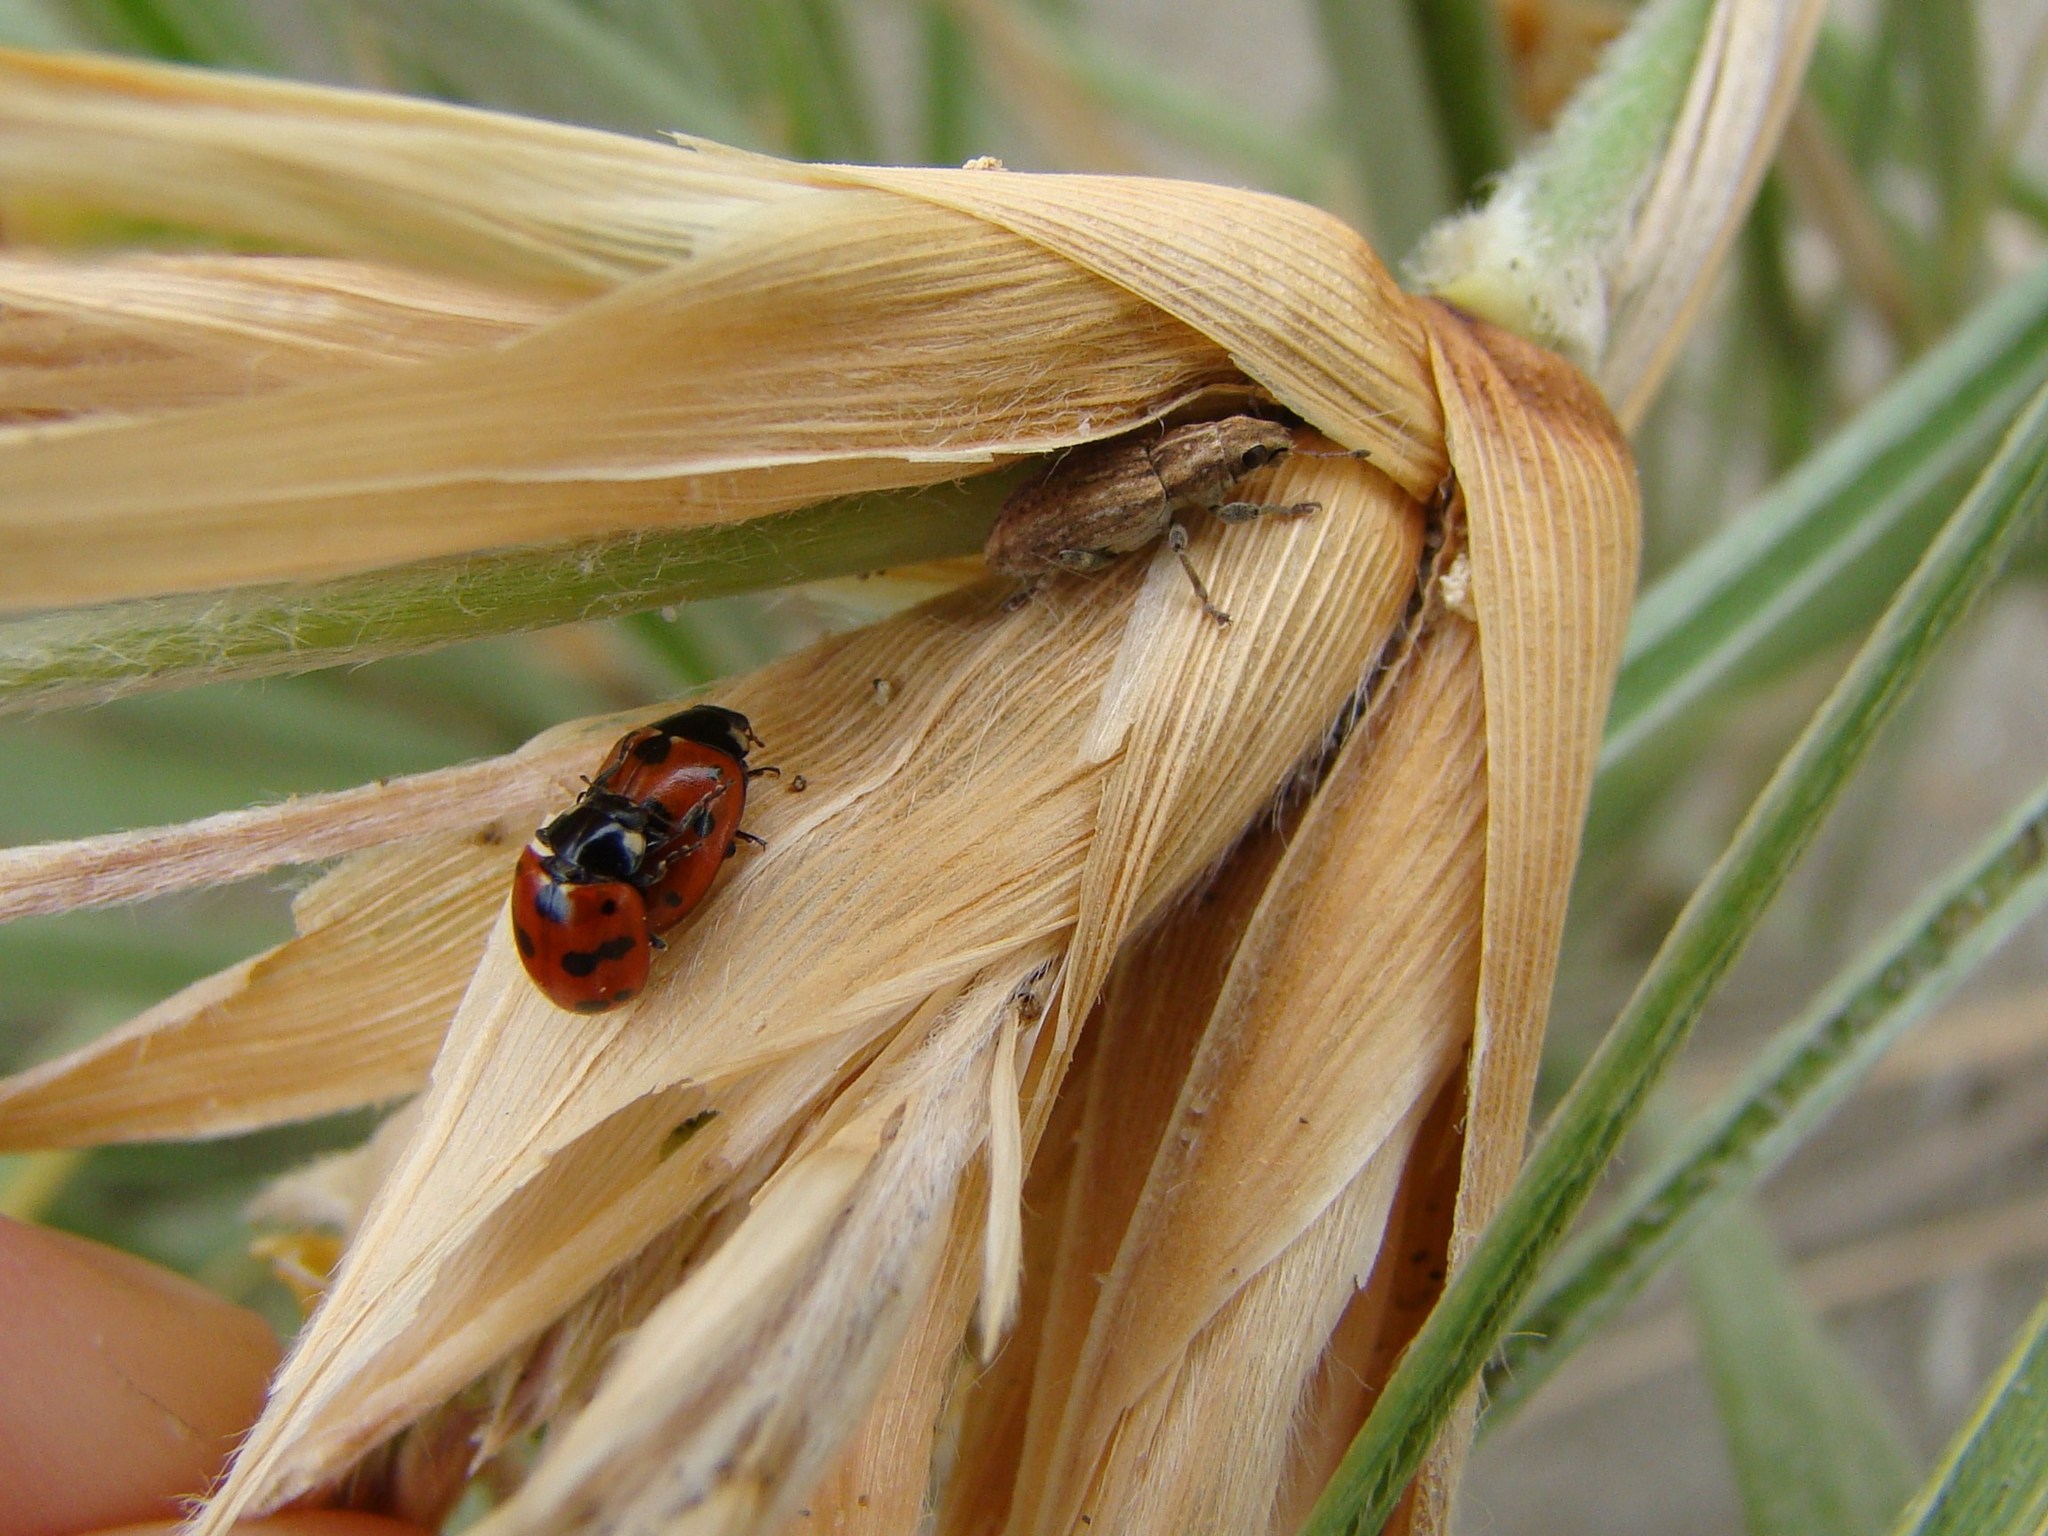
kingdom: Animalia
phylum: Arthropoda
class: Insecta
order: Coleoptera
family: Coccinellidae
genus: Coccinella
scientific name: Coccinella undecimpunctata
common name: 11-spot ladybird
